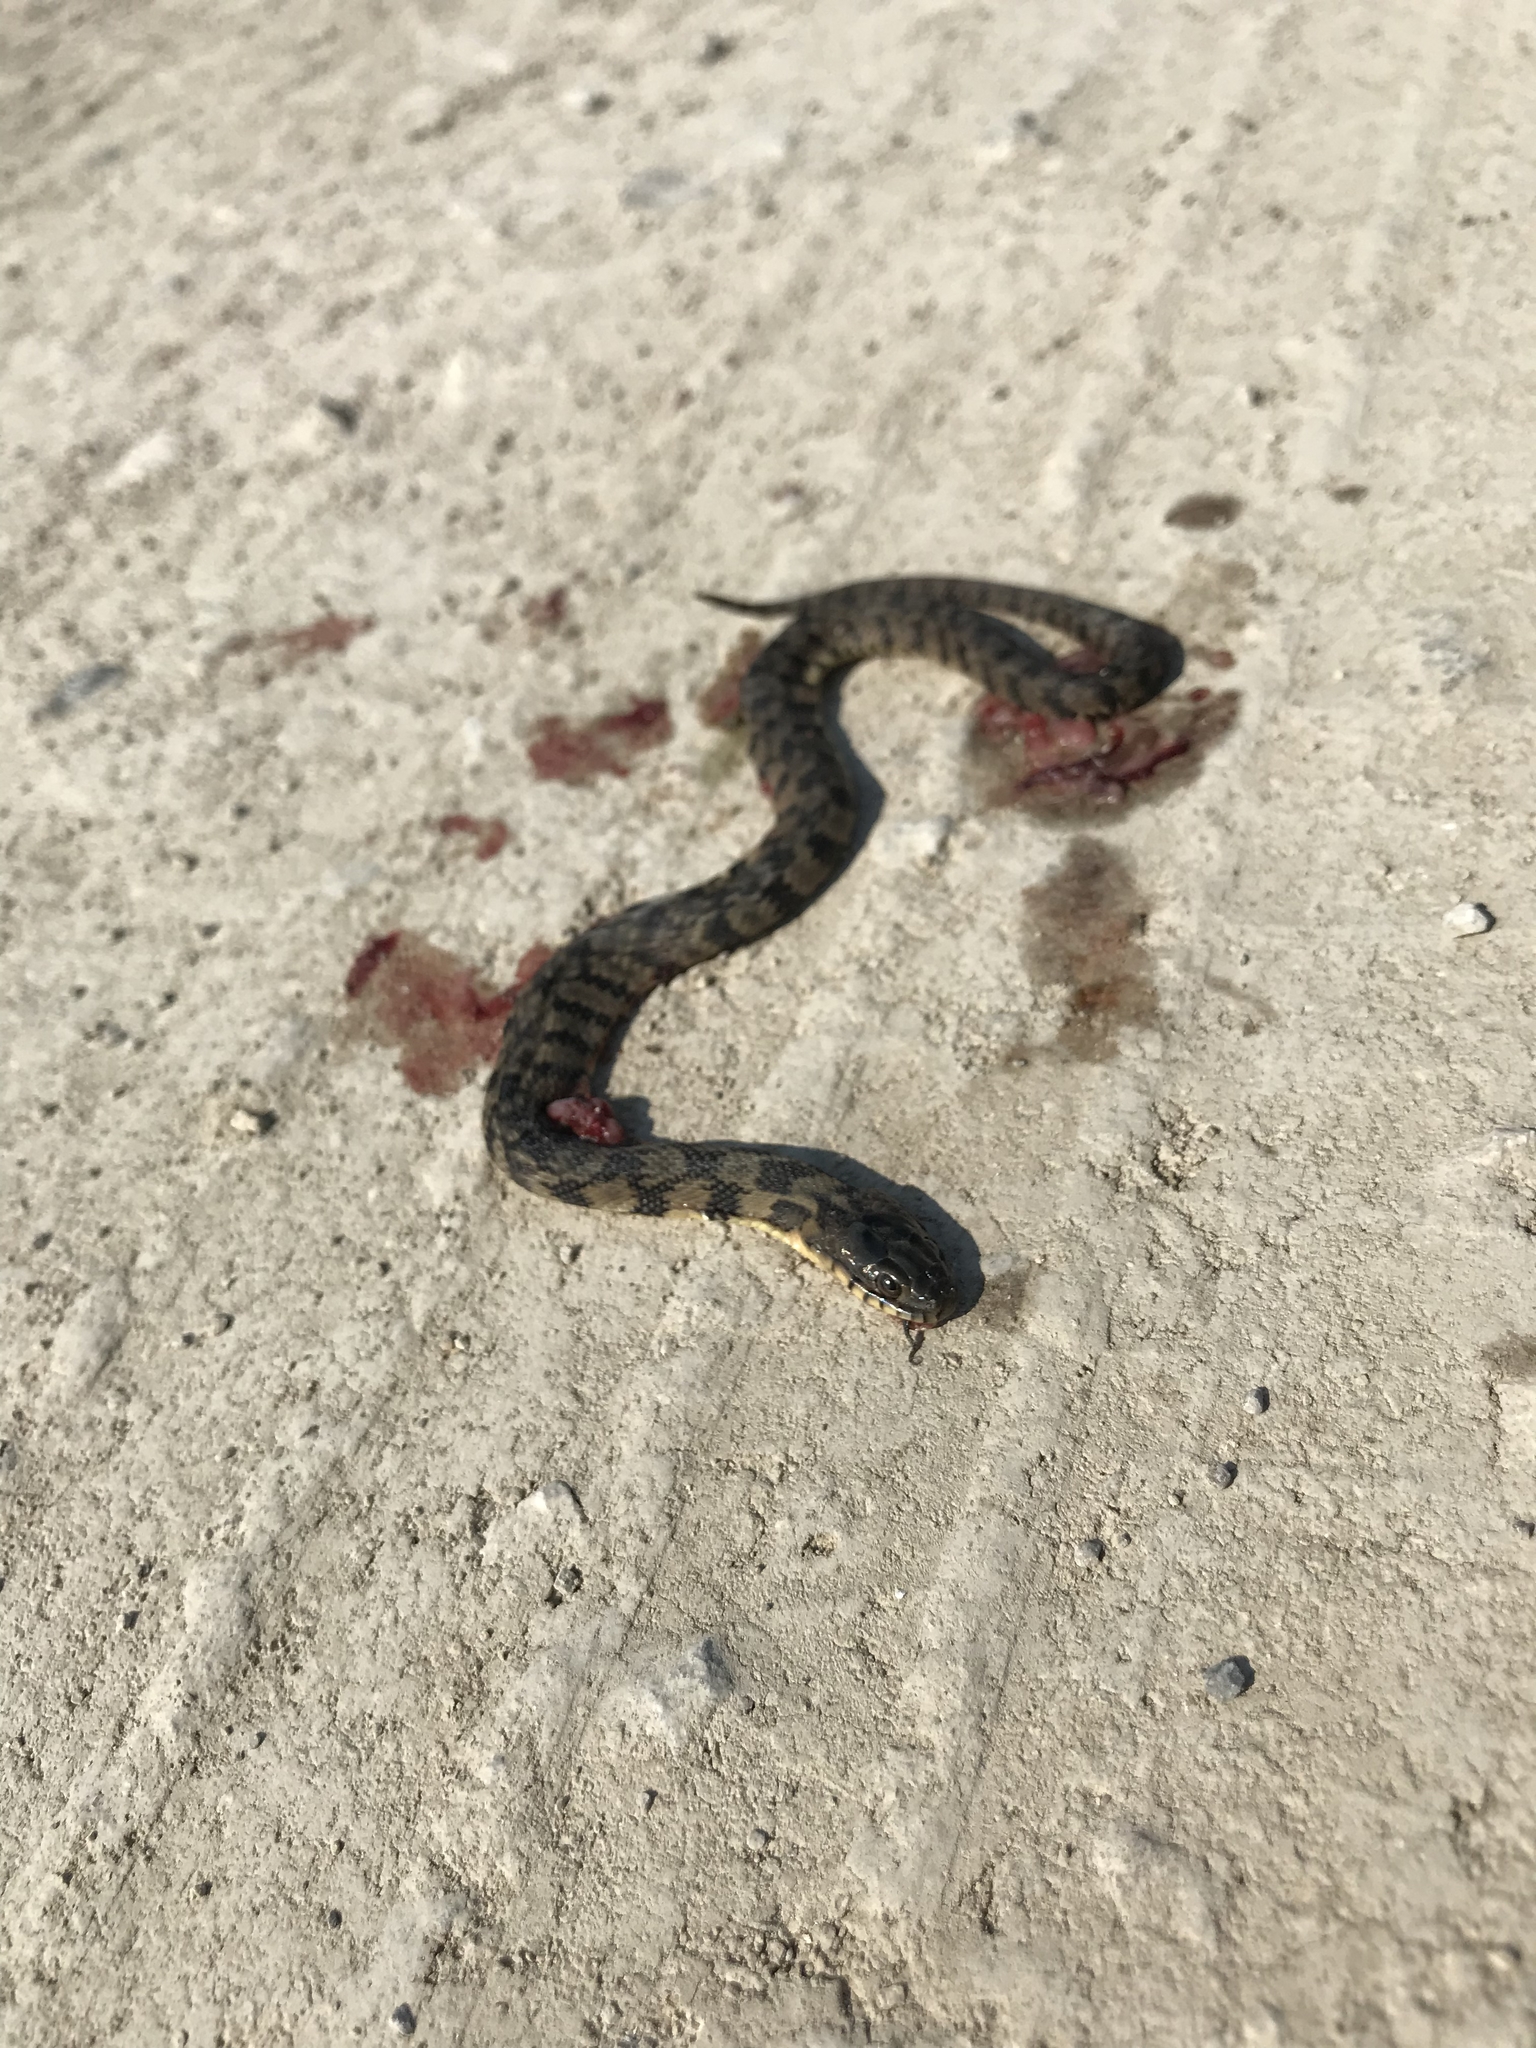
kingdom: Animalia
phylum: Chordata
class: Squamata
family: Colubridae
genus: Nerodia
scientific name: Nerodia rhombifer
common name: Diamondback water snake
